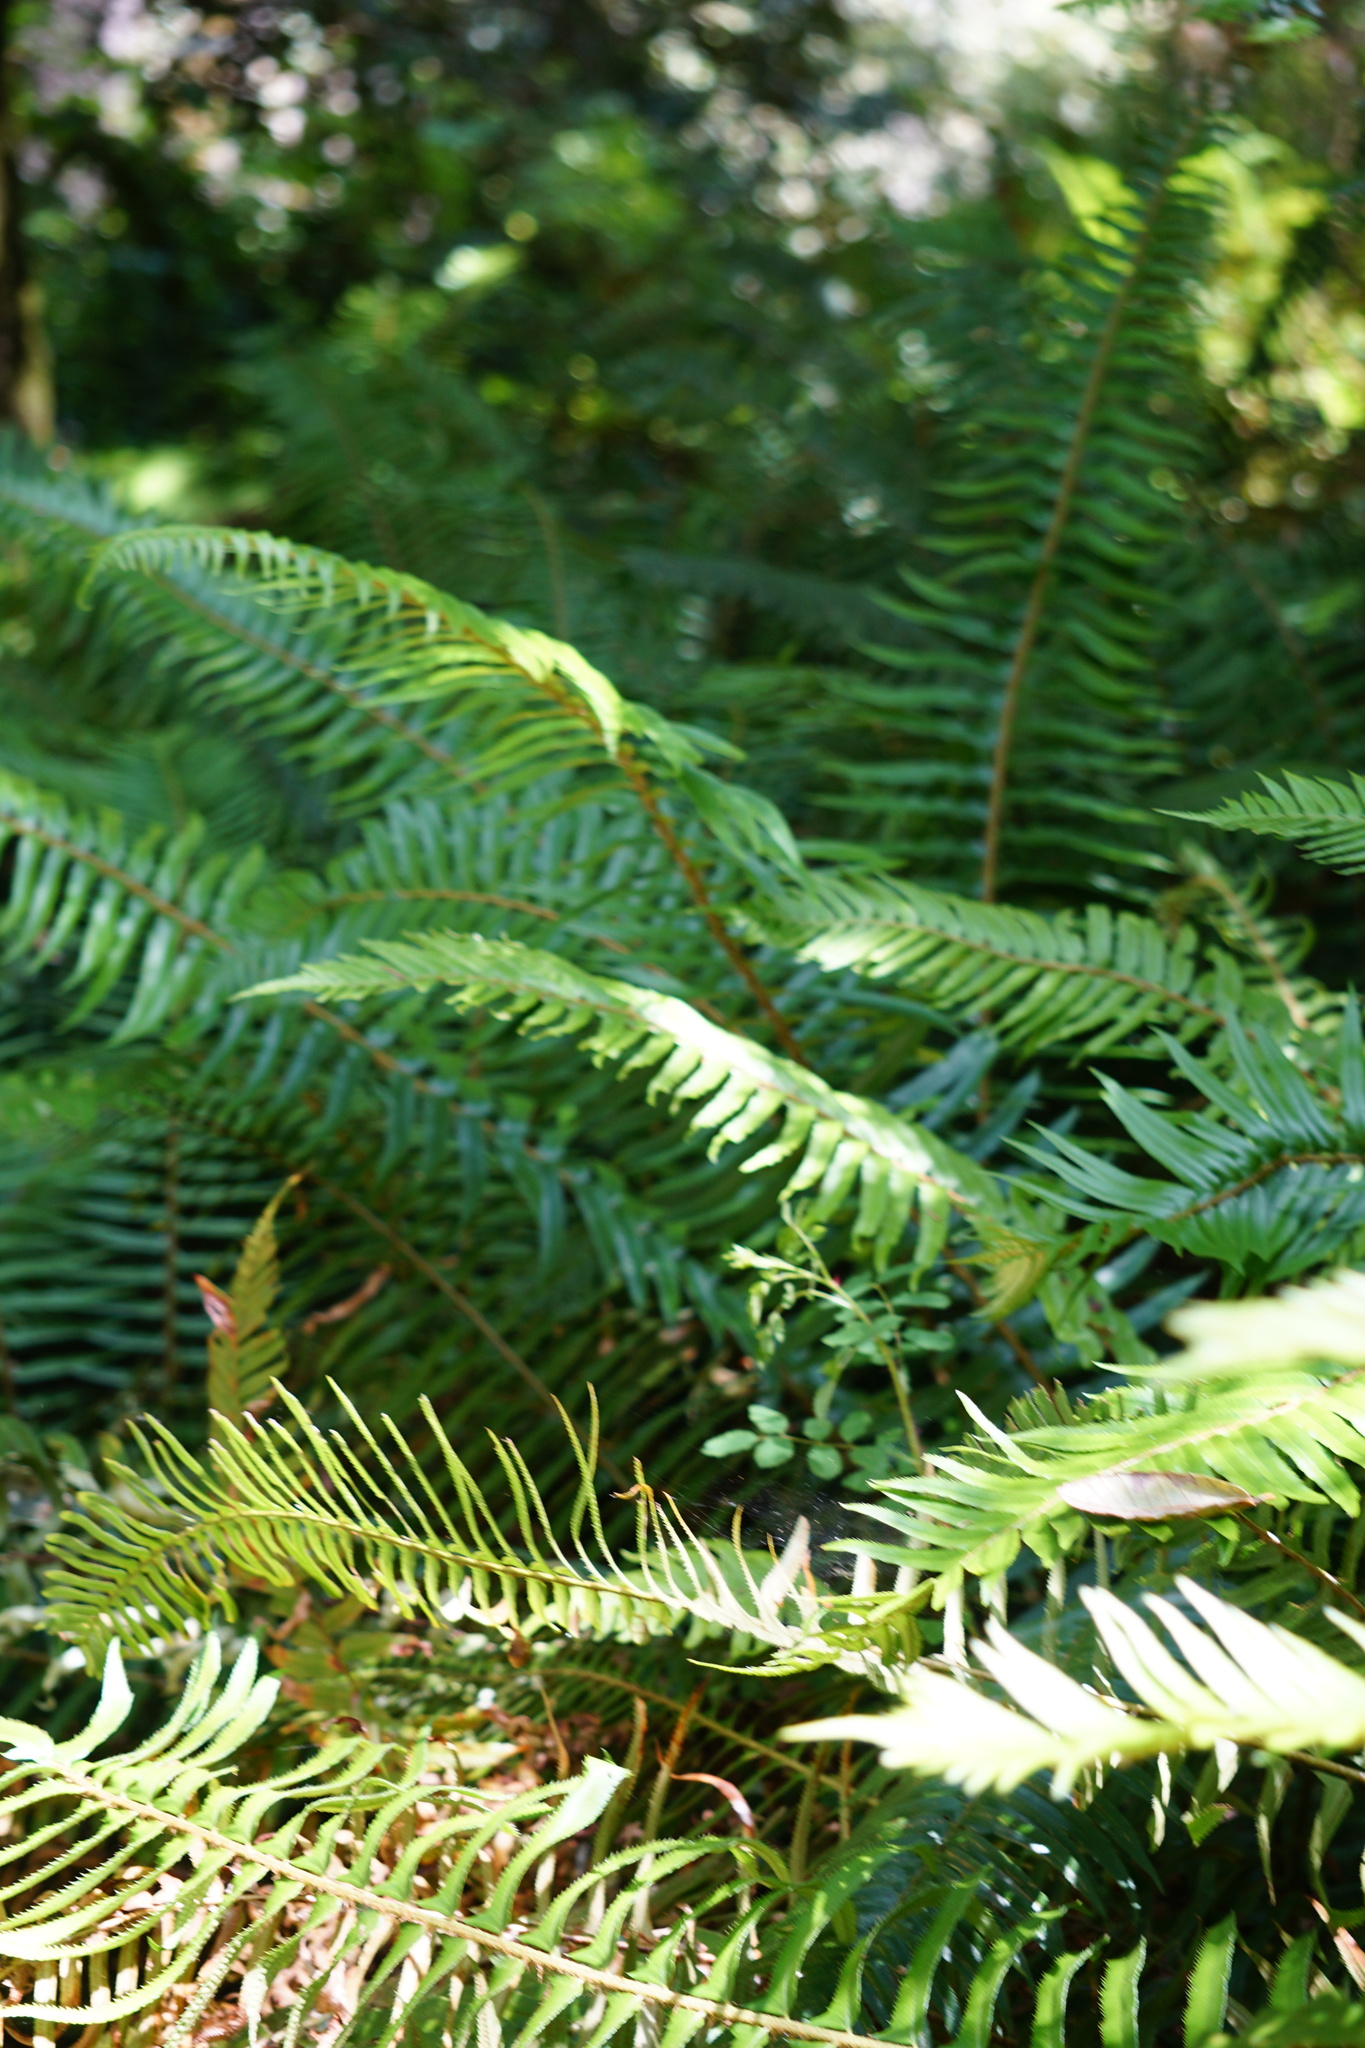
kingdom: Plantae
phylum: Tracheophyta
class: Polypodiopsida
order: Polypodiales
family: Dryopteridaceae
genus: Polystichum
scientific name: Polystichum munitum
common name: Western sword-fern
